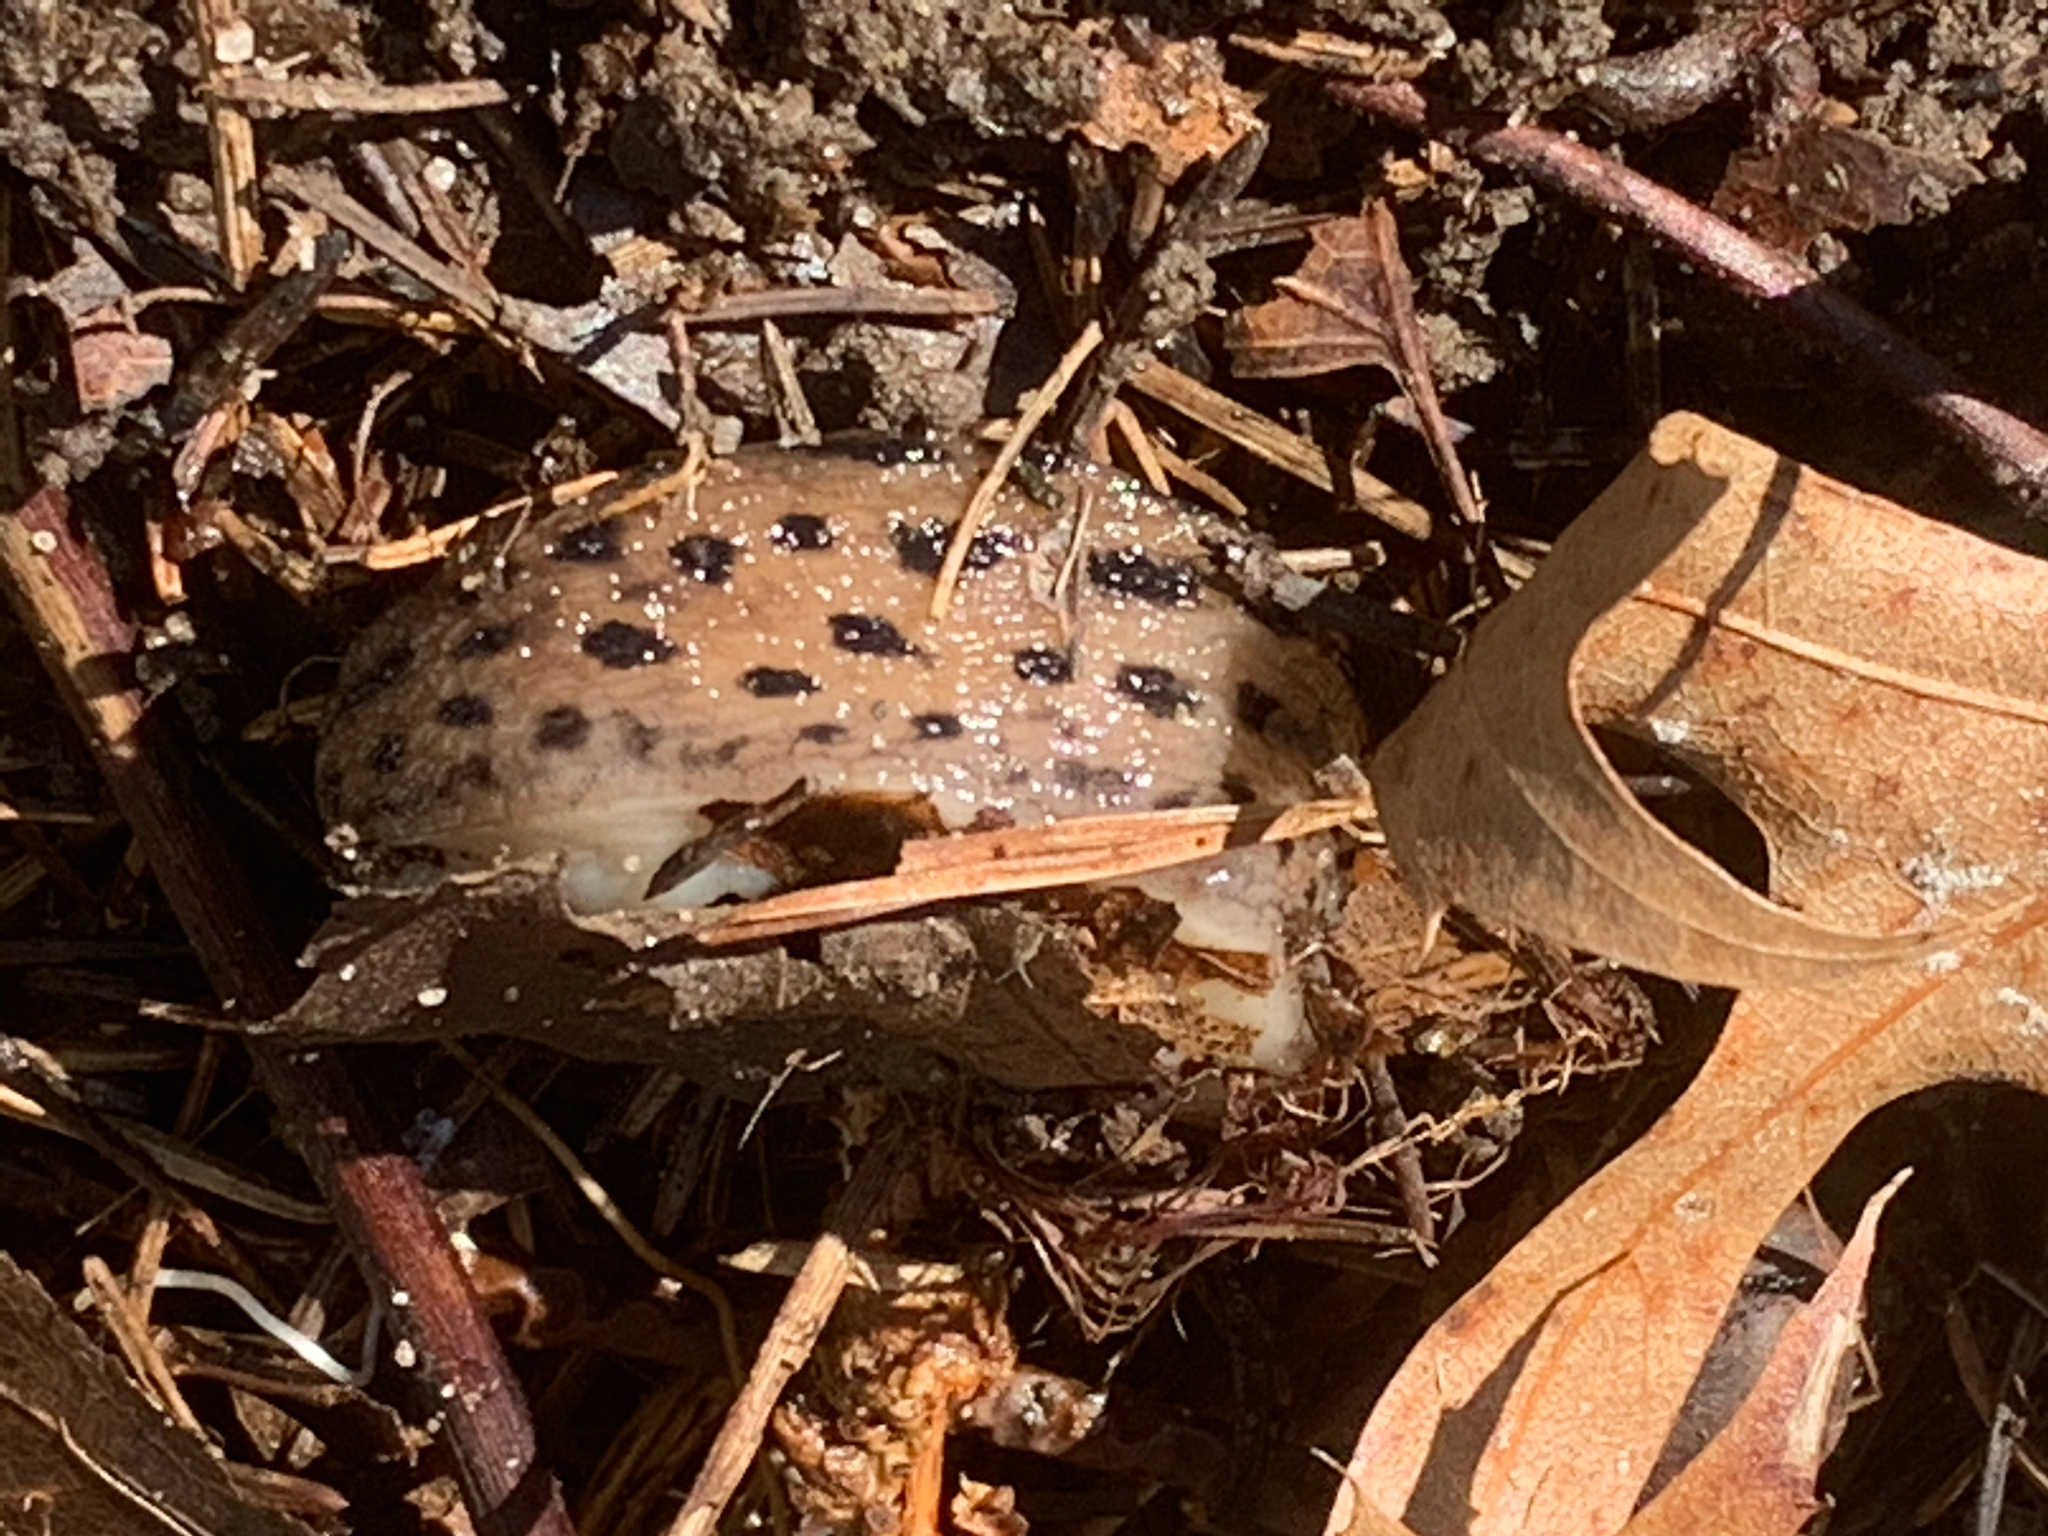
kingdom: Animalia
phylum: Mollusca
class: Gastropoda
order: Stylommatophora
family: Limacidae
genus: Limax
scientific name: Limax maximus
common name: Great grey slug
